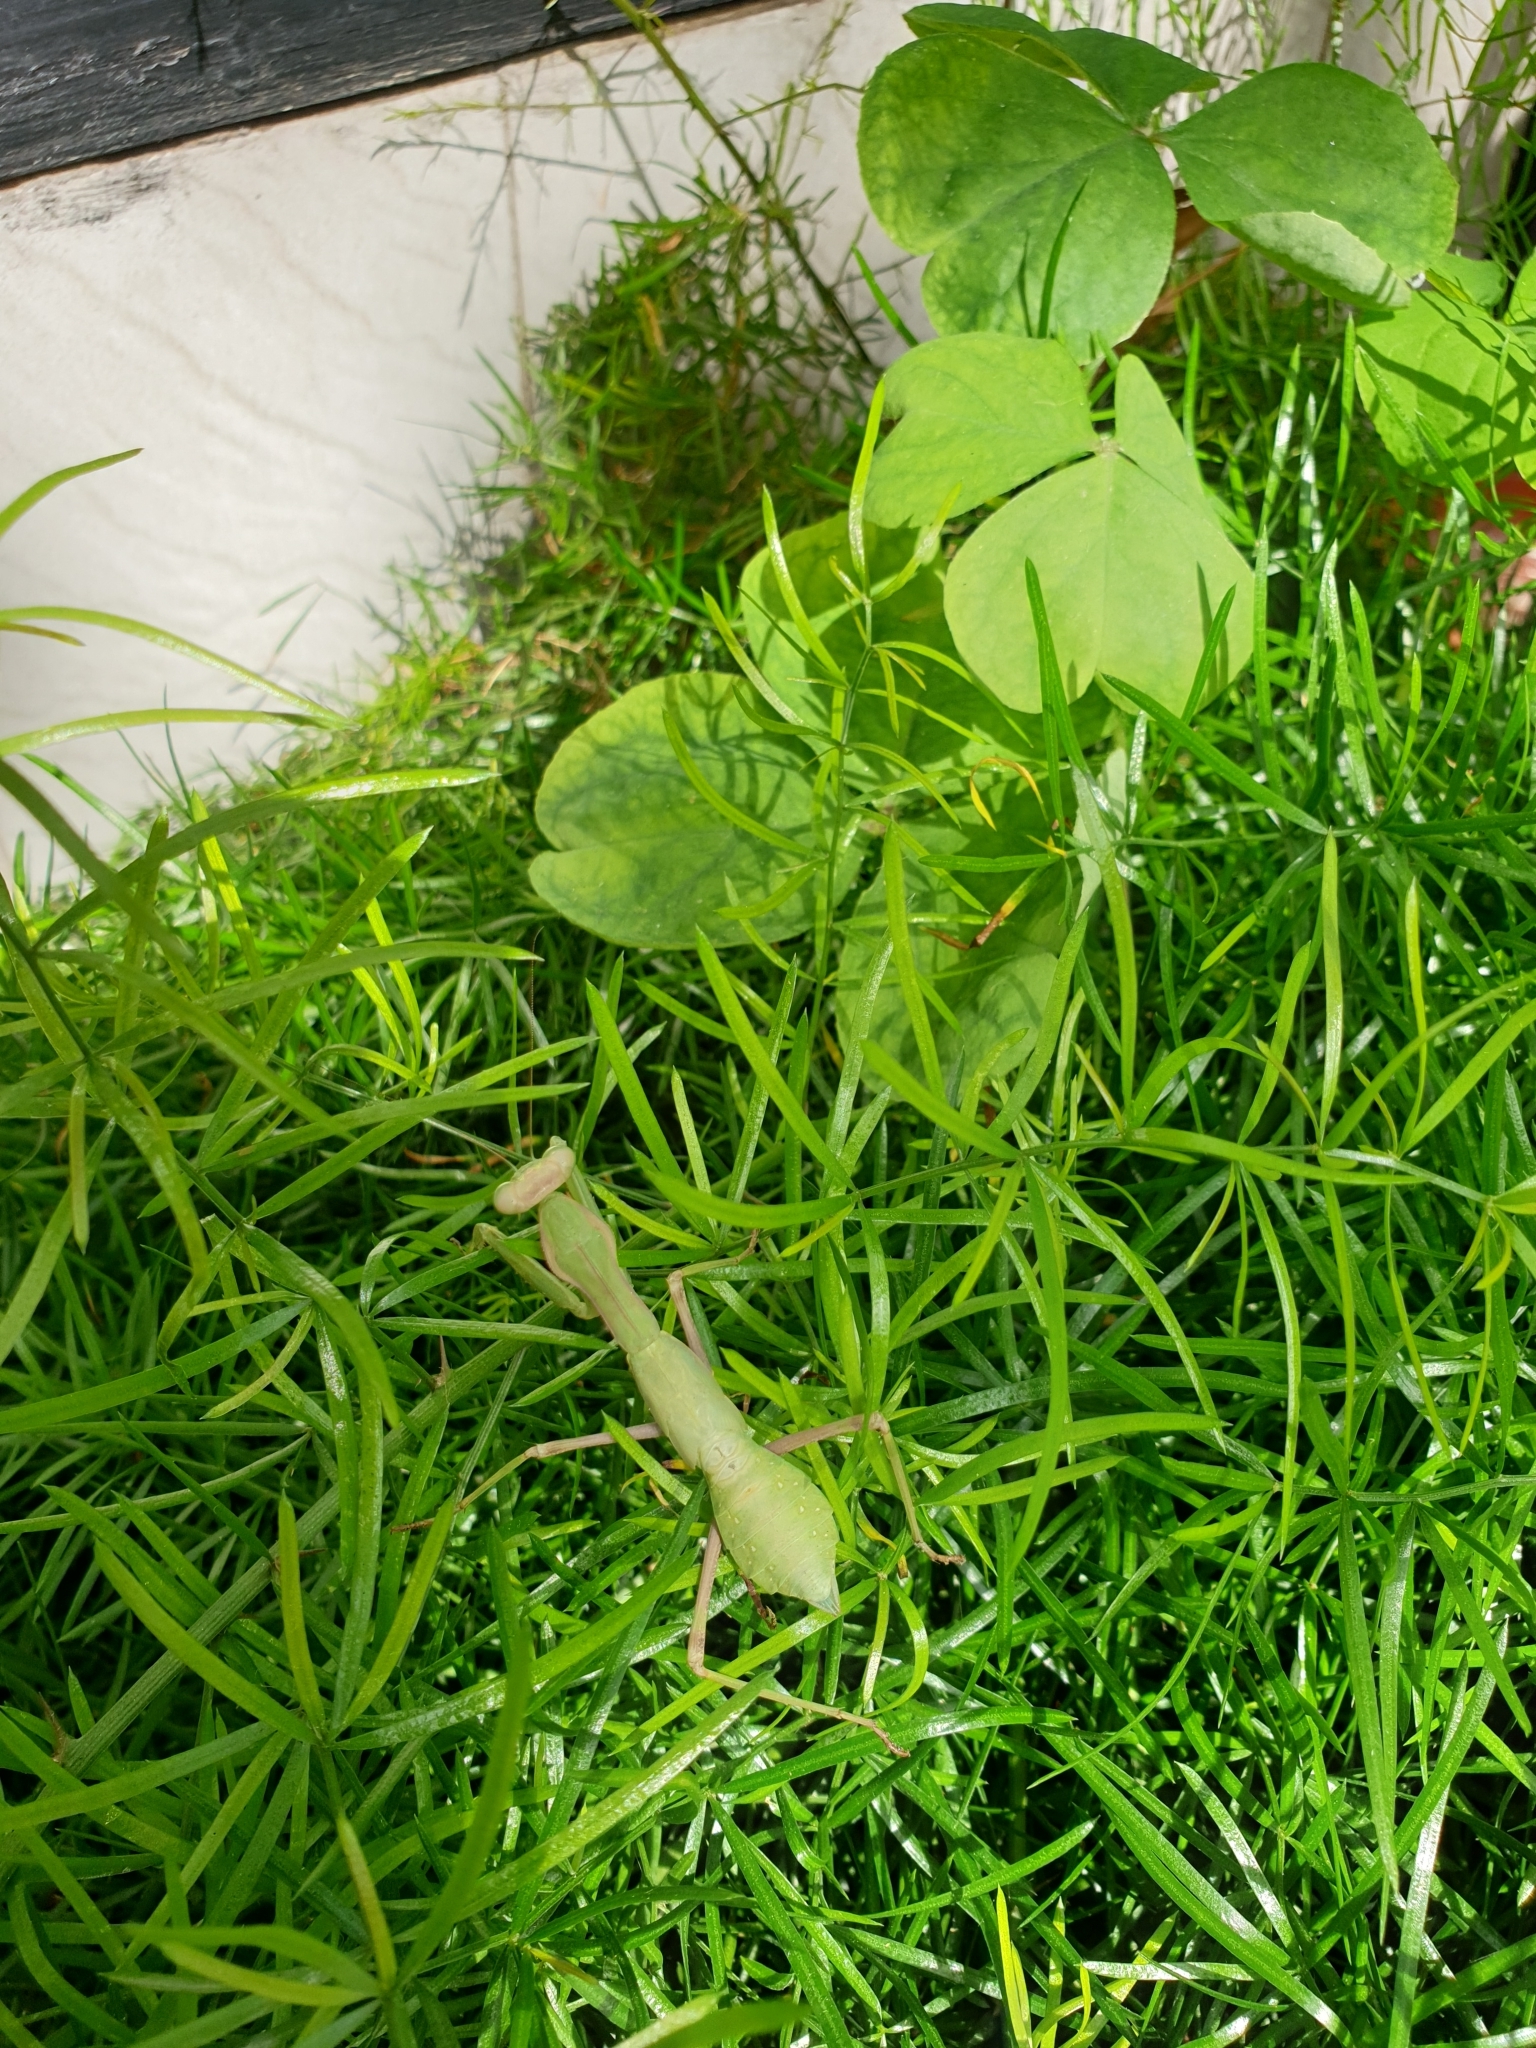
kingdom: Animalia
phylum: Arthropoda
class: Insecta
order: Mantodea
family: Mantidae
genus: Sphodromantis
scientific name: Sphodromantis viridis
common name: Giant african mantis
